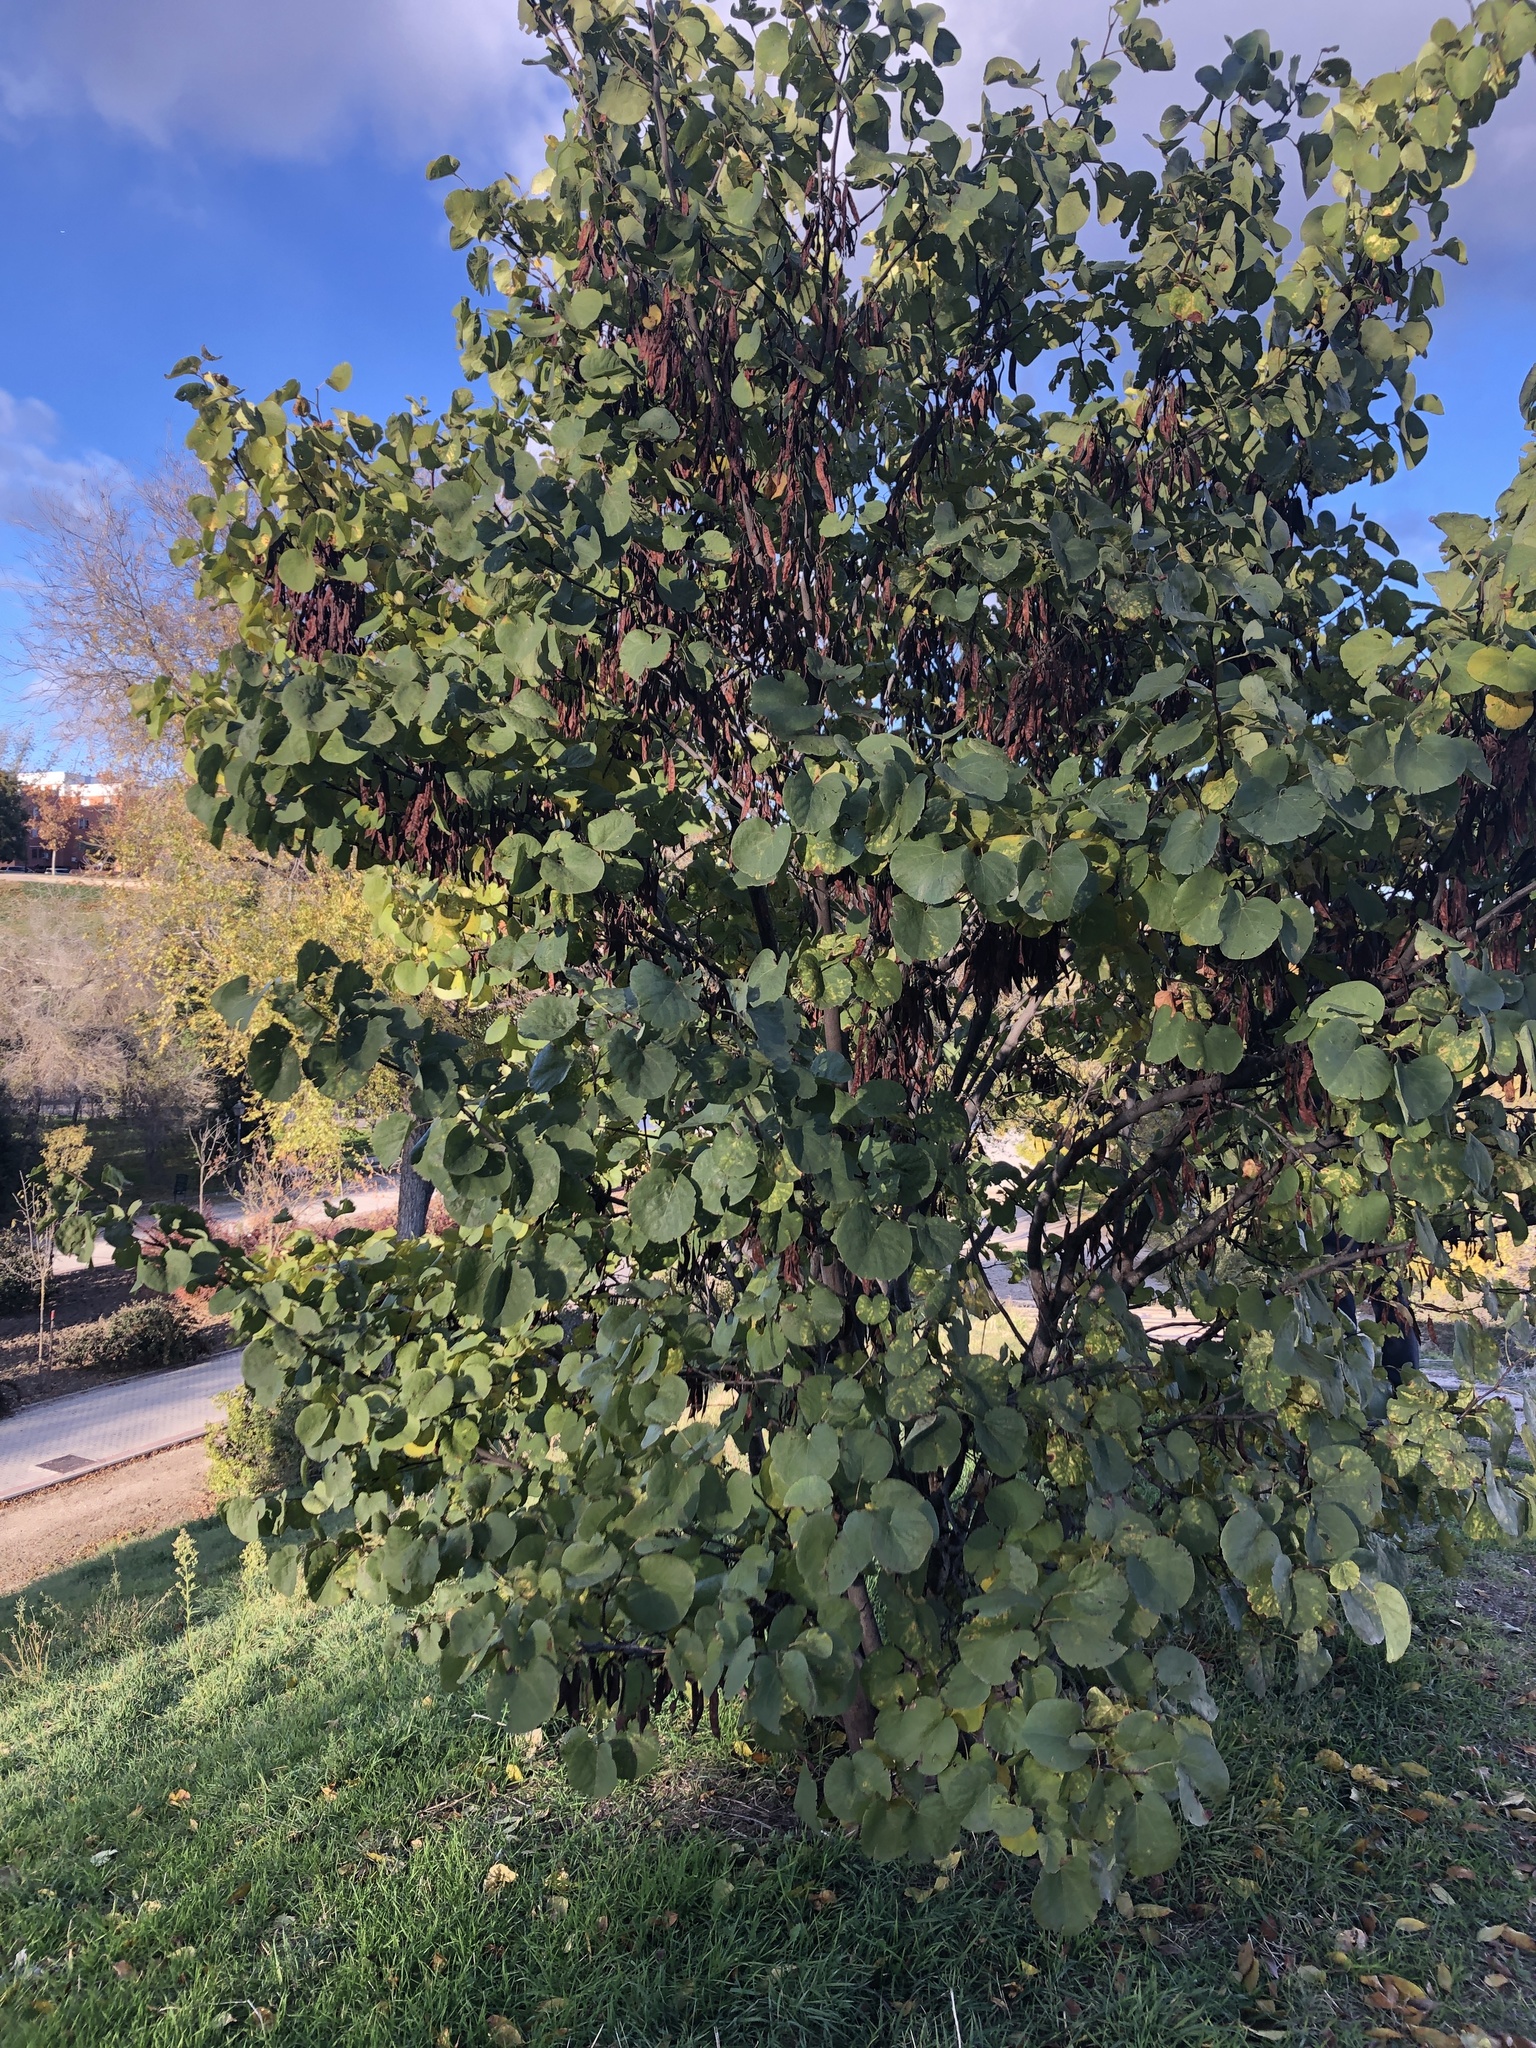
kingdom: Plantae
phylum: Tracheophyta
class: Magnoliopsida
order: Fabales
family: Fabaceae
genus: Cercis
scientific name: Cercis siliquastrum
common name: Judas tree
